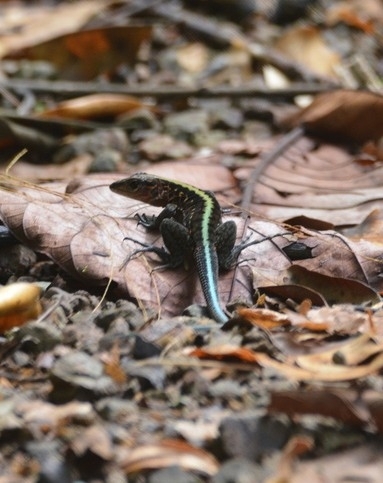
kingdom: Animalia
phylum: Chordata
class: Squamata
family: Teiidae
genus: Holcosus
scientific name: Holcosus festivus
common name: Middle american ameiva
